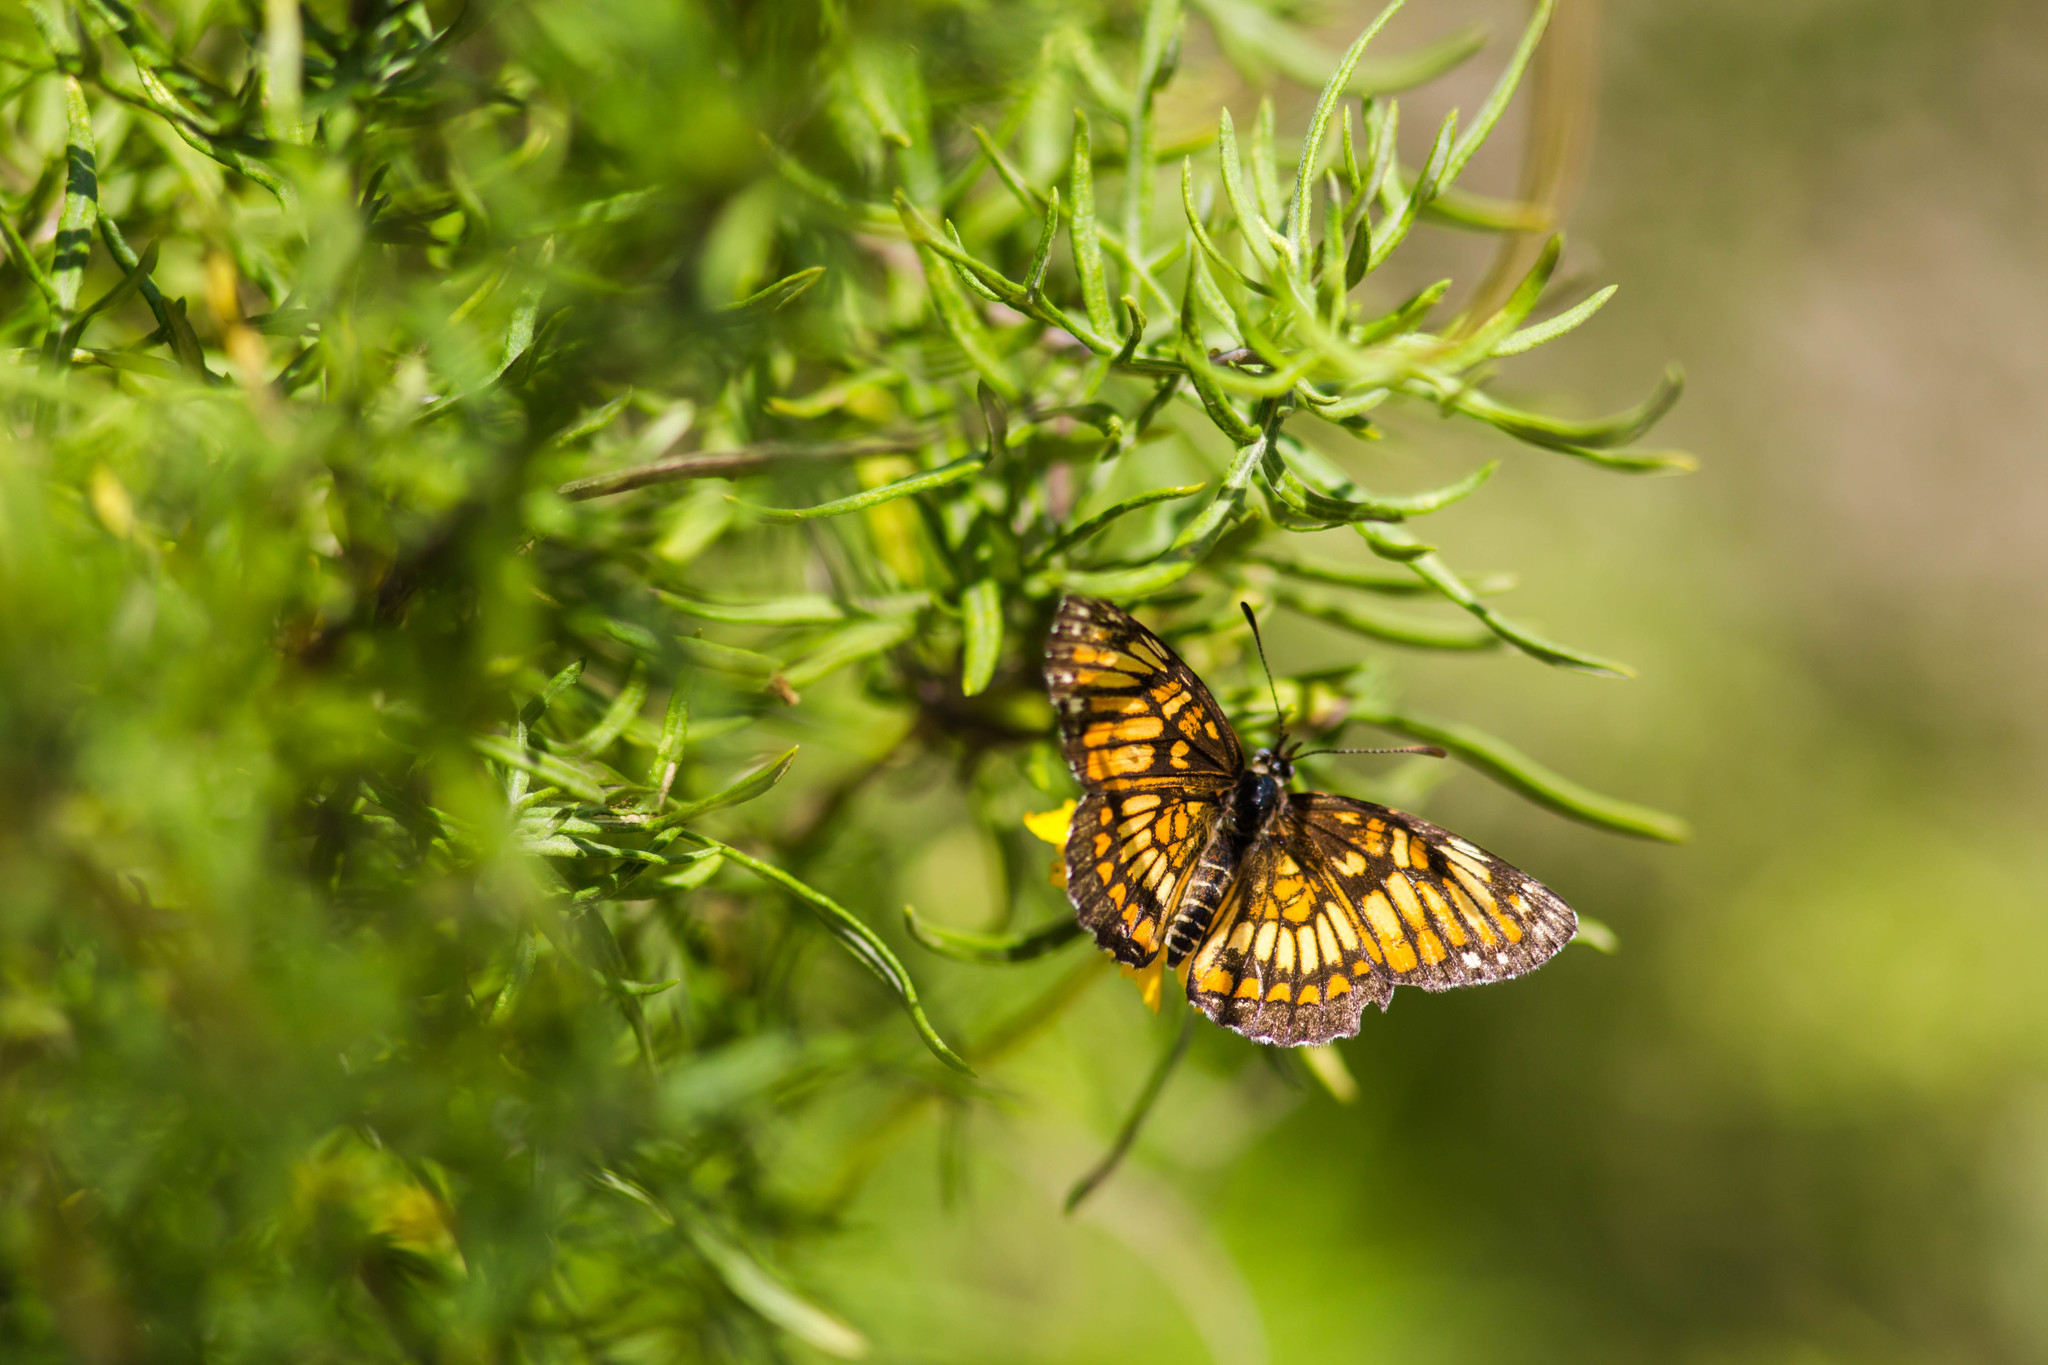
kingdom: Animalia
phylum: Arthropoda
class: Insecta
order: Lepidoptera
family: Nymphalidae
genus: Thessalia
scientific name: Thessalia theona
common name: Nymphalid moth
